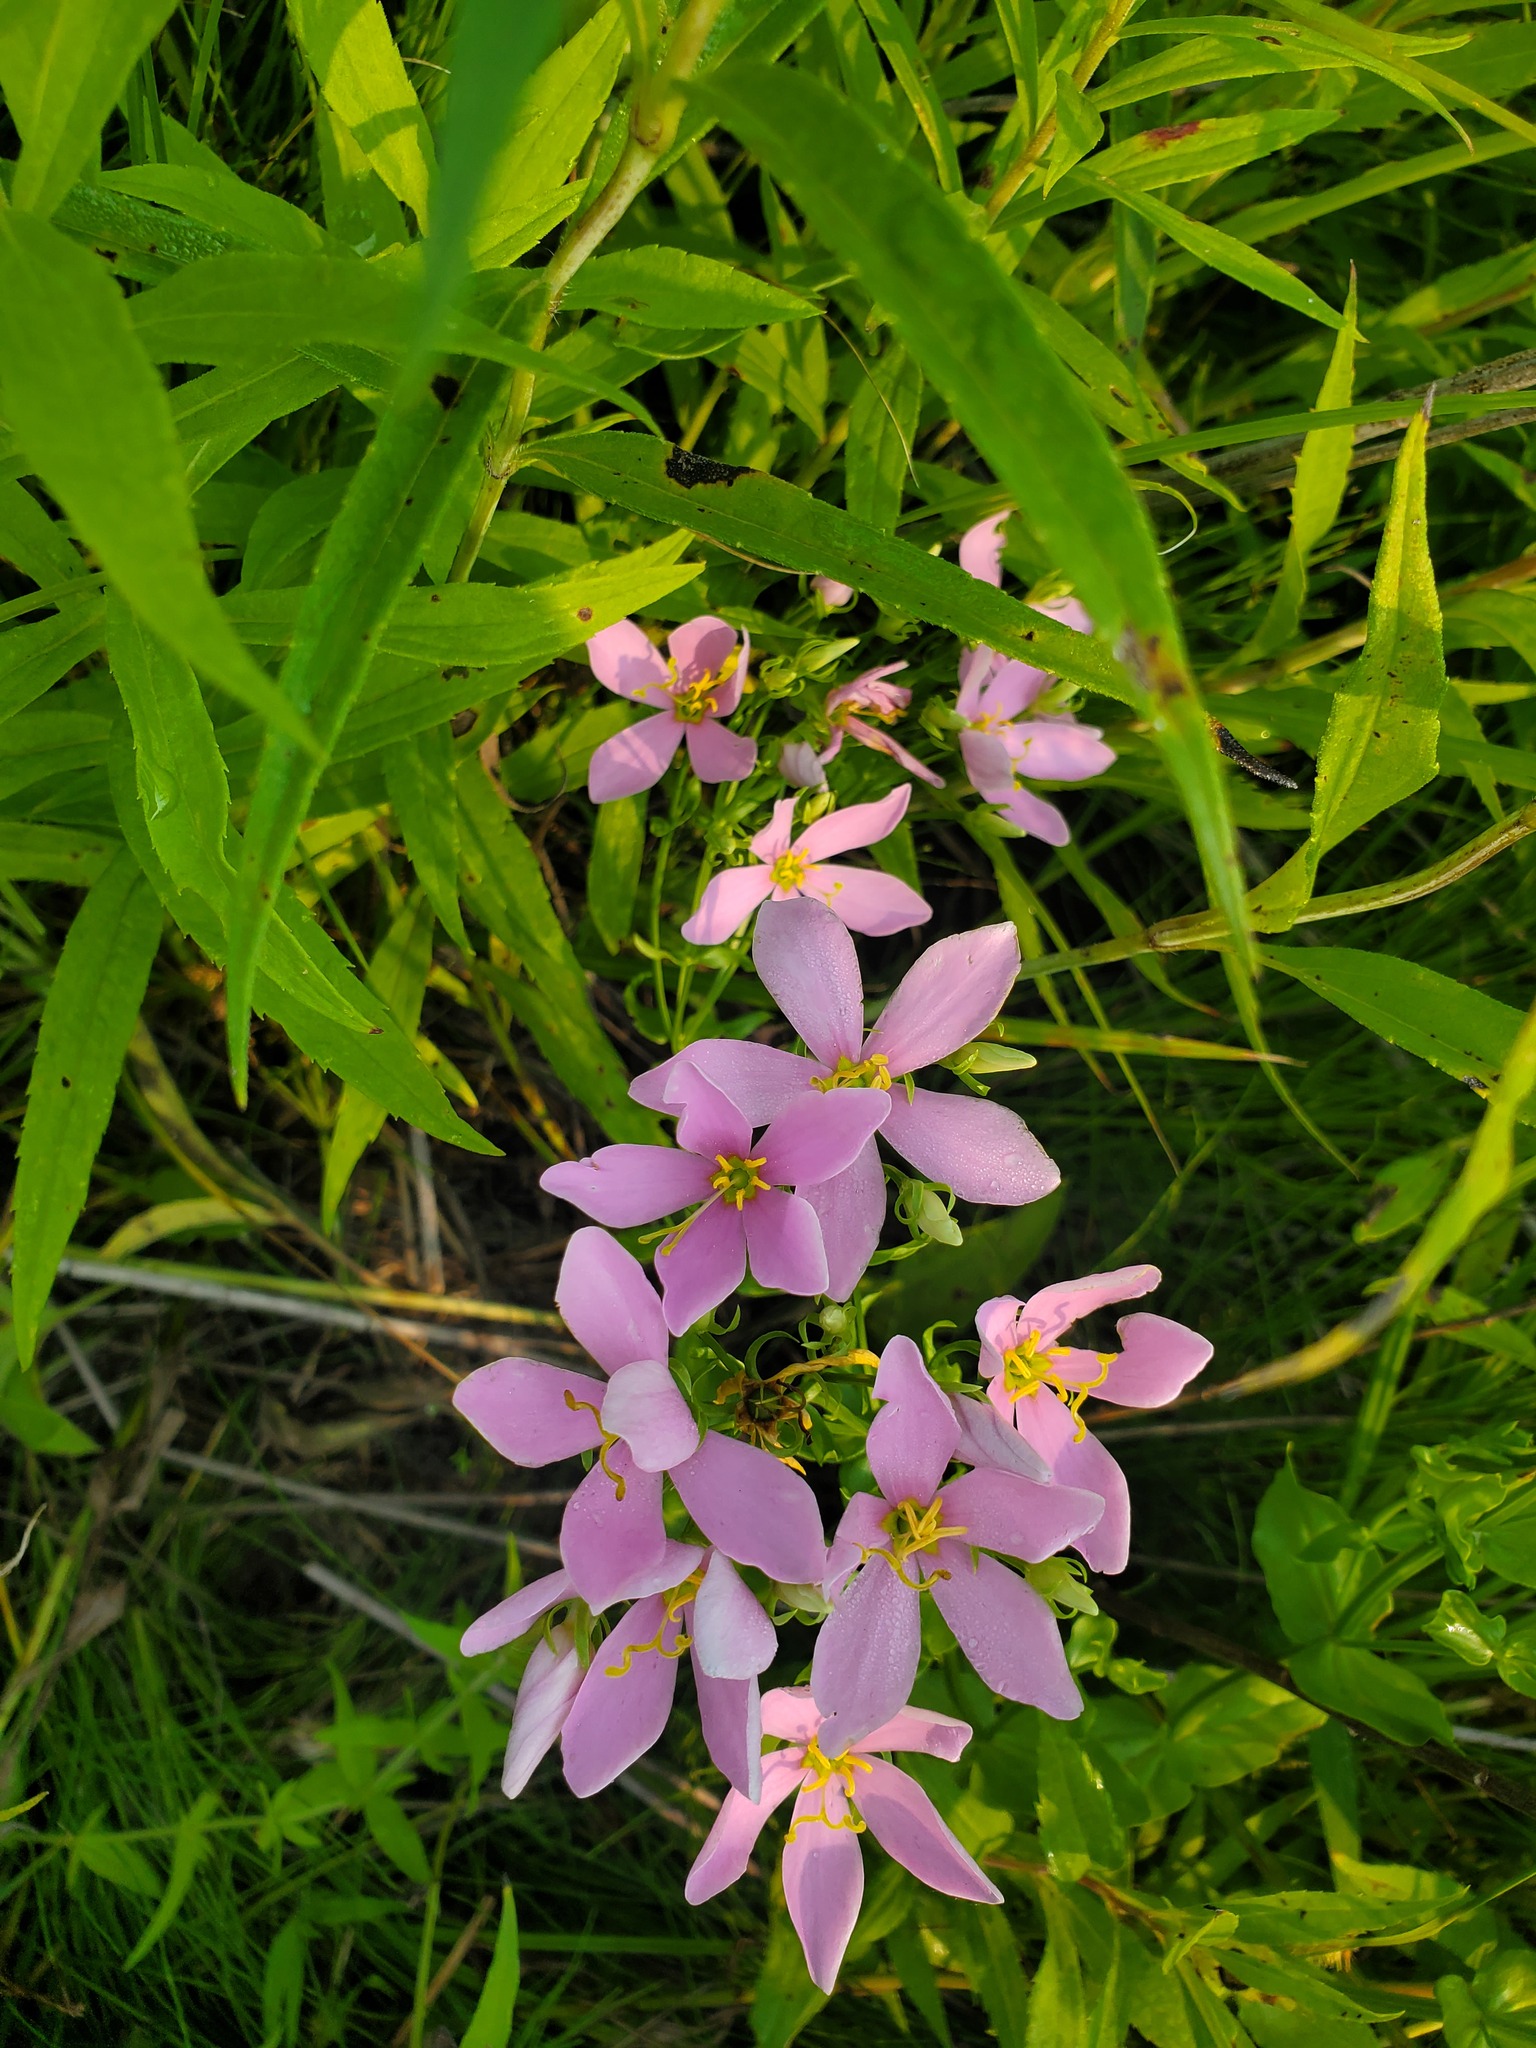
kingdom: Plantae
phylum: Tracheophyta
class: Magnoliopsida
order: Gentianales
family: Gentianaceae
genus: Sabatia
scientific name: Sabatia angularis
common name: Rose-pink
